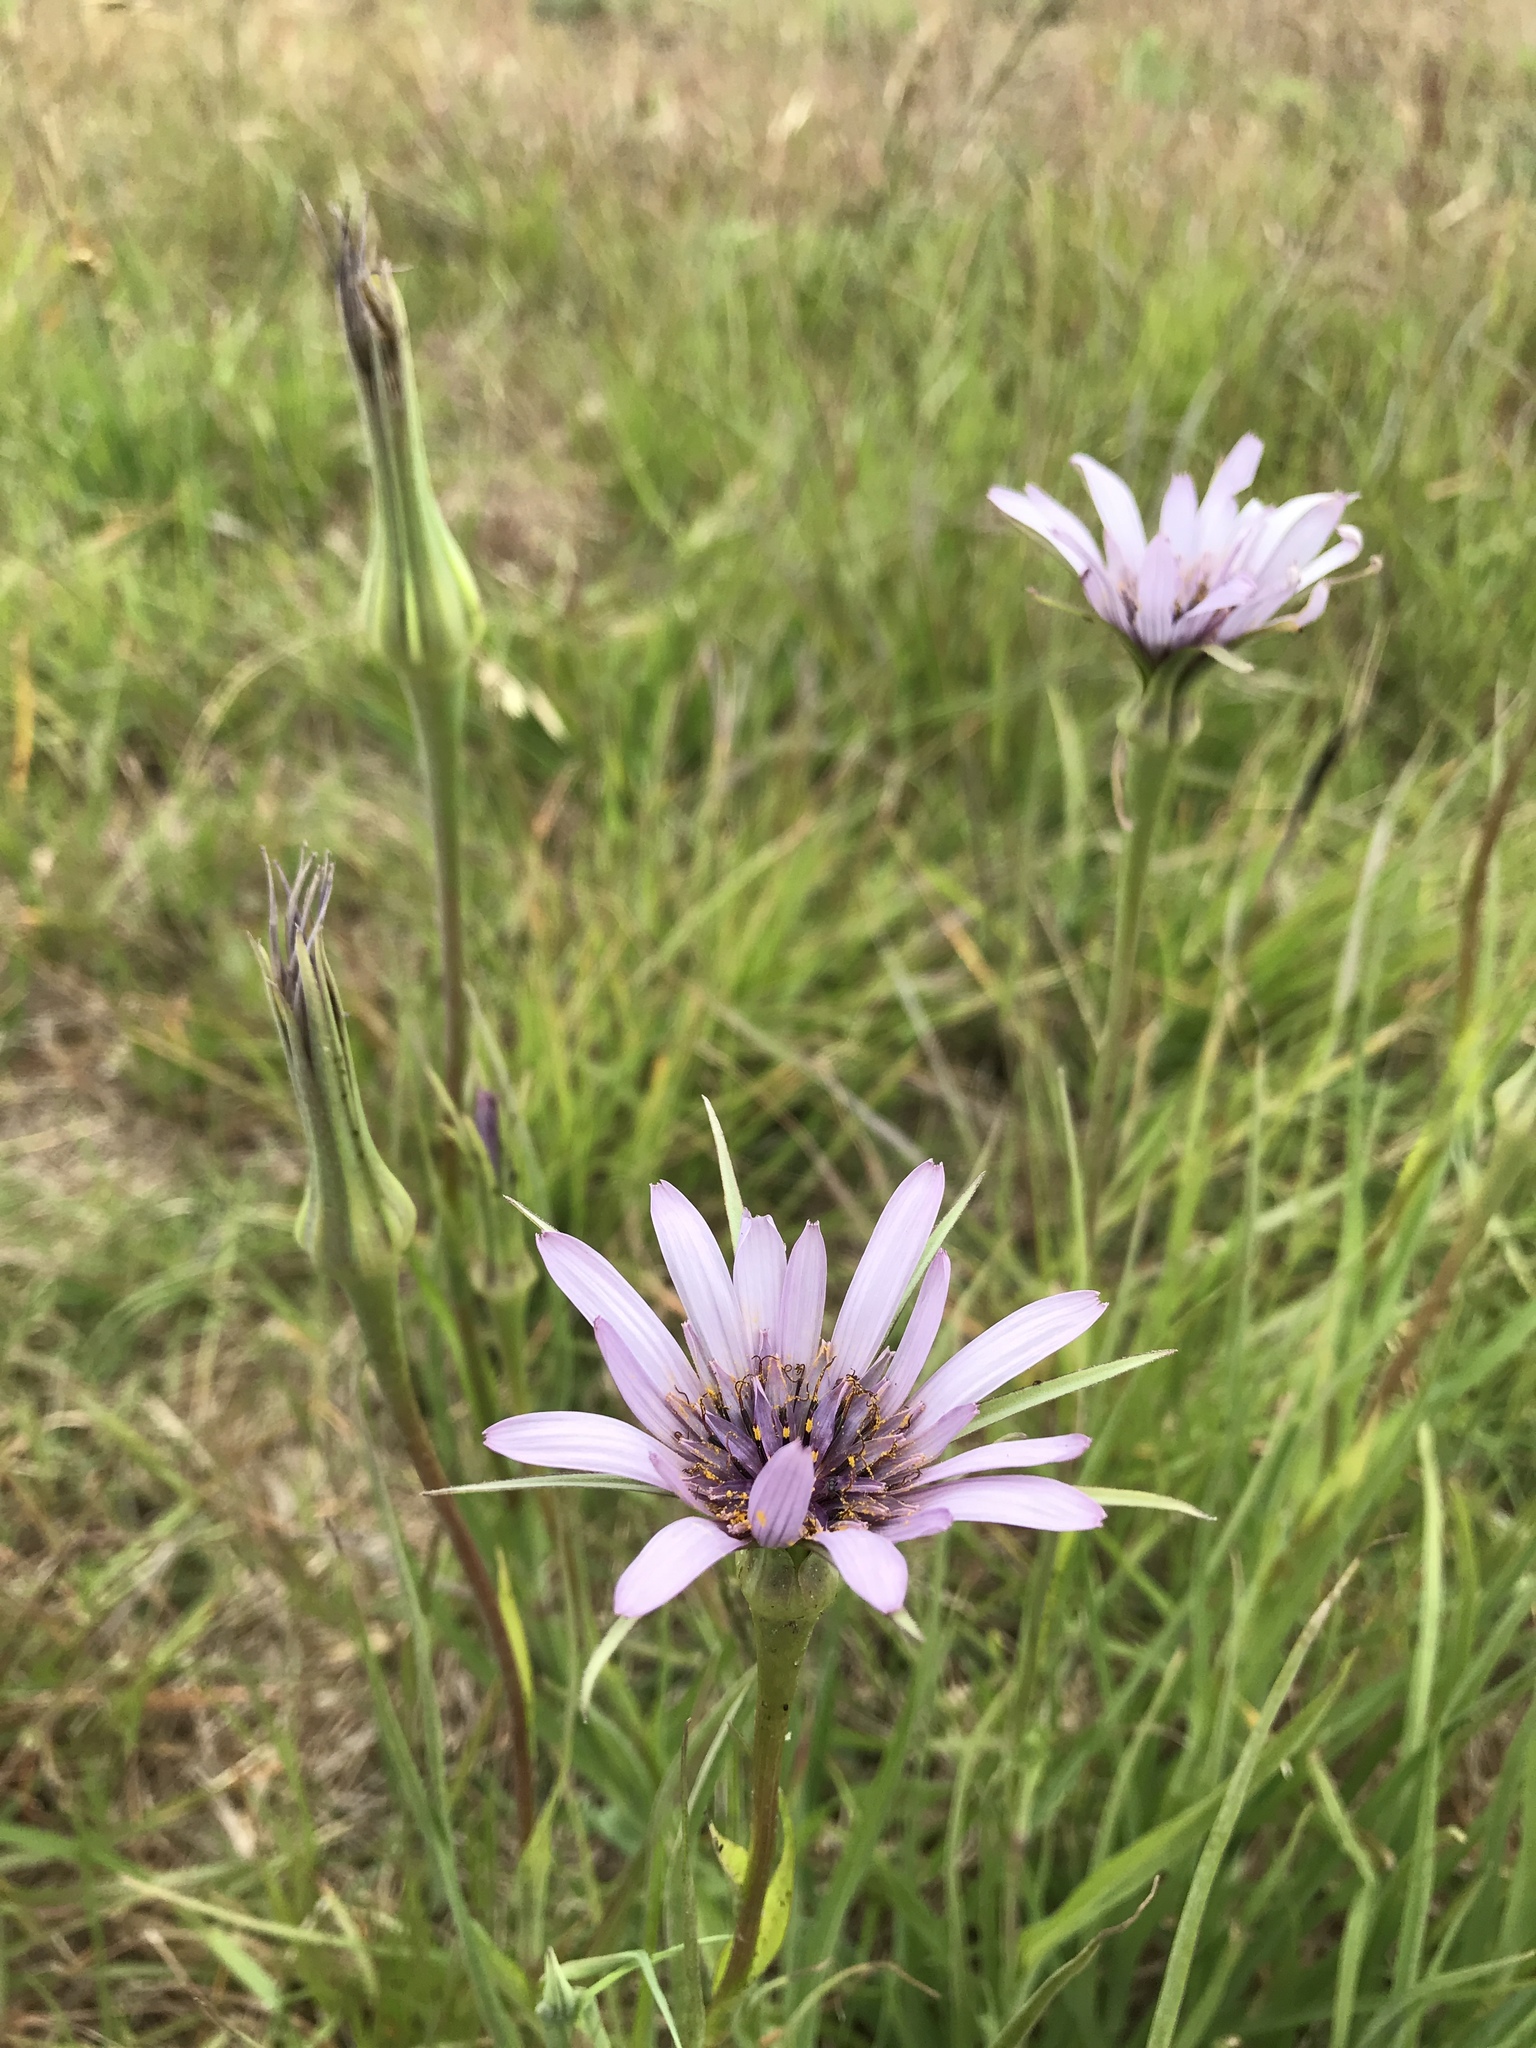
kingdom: Plantae
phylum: Tracheophyta
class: Magnoliopsida
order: Asterales
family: Asteraceae
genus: Tragopogon
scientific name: Tragopogon porrifolius
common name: Salsify
